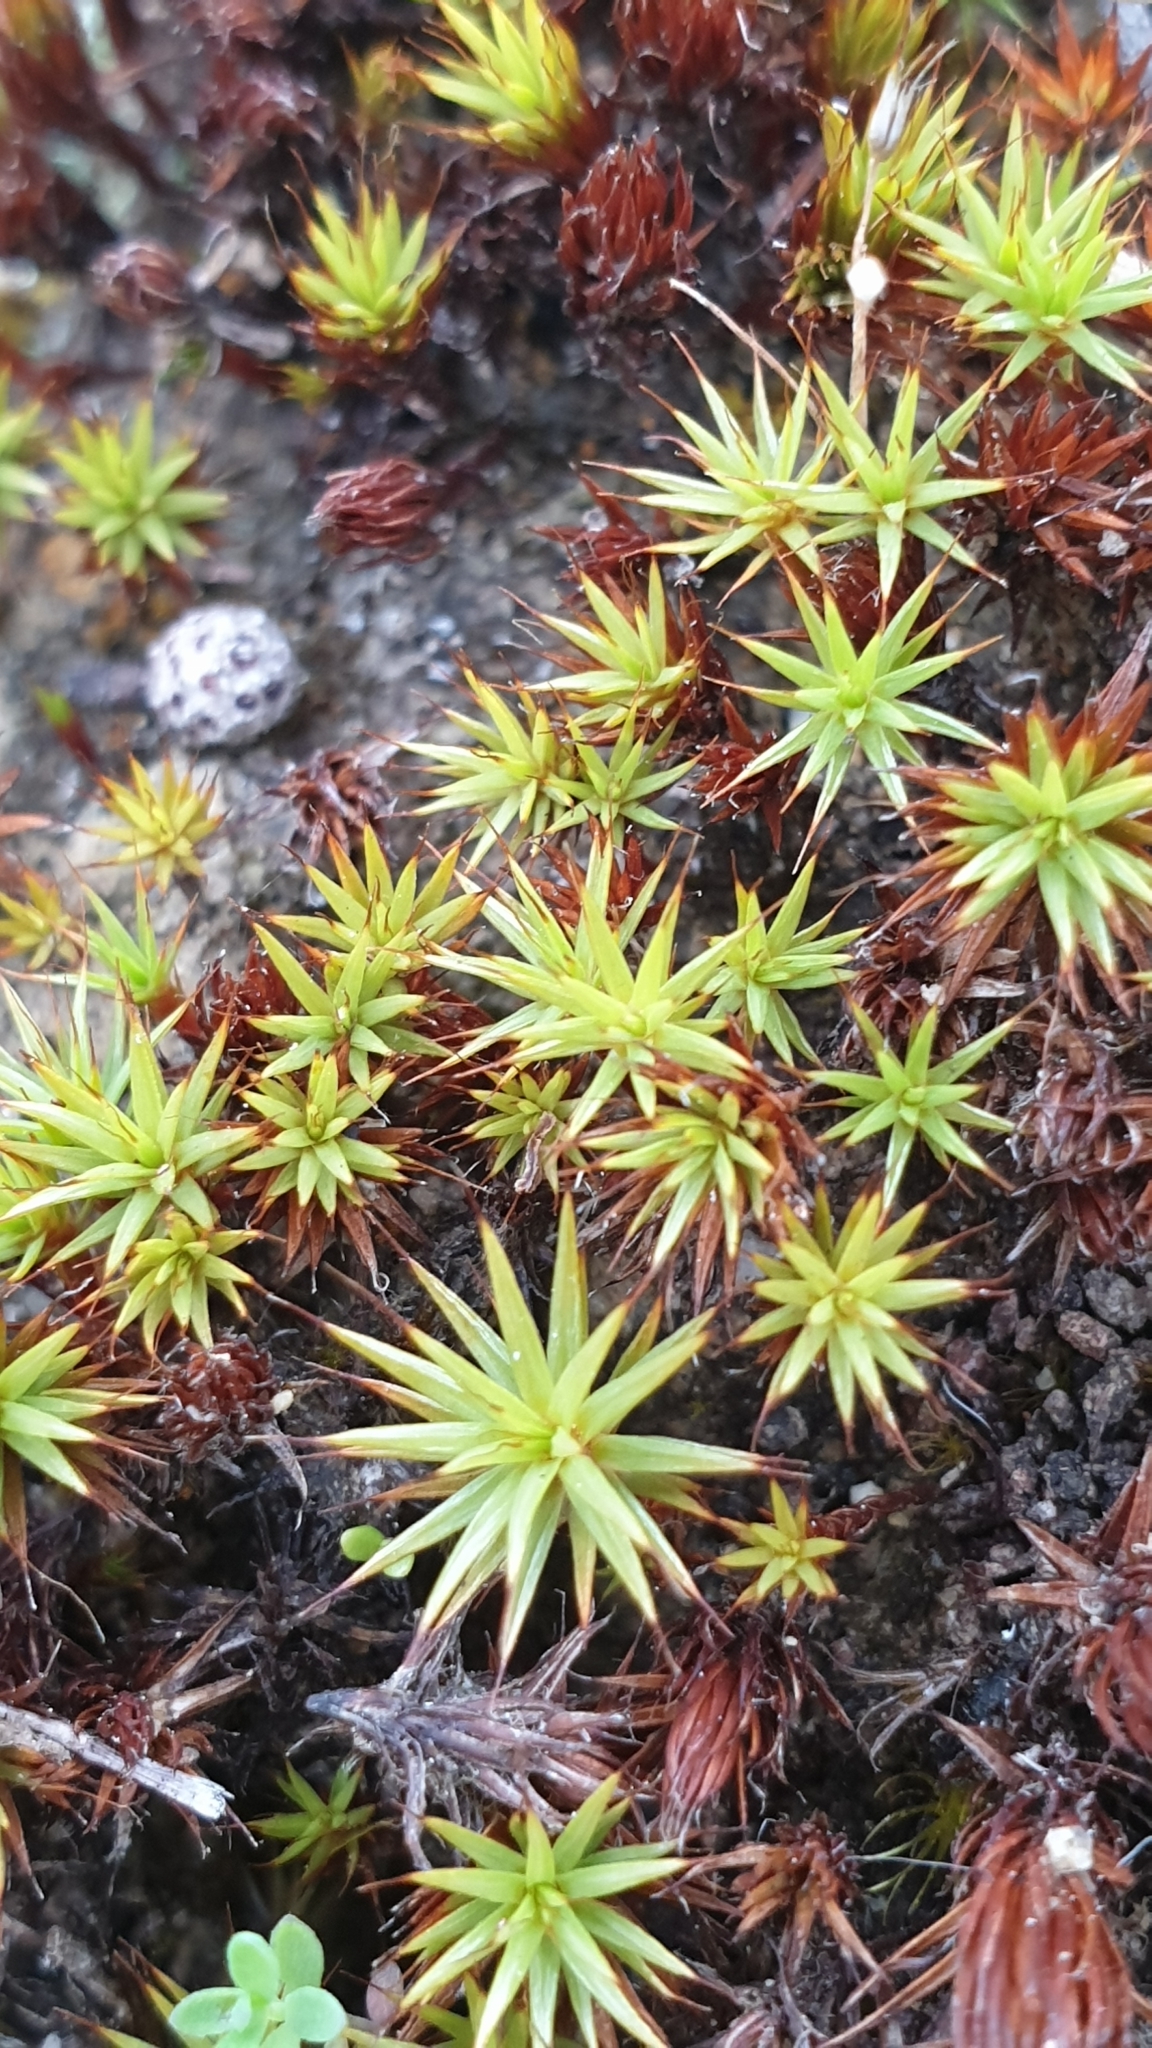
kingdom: Plantae
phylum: Bryophyta
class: Polytrichopsida
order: Polytrichales
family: Polytrichaceae
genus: Polytrichum
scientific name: Polytrichum juniperinum
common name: Juniper haircap moss
